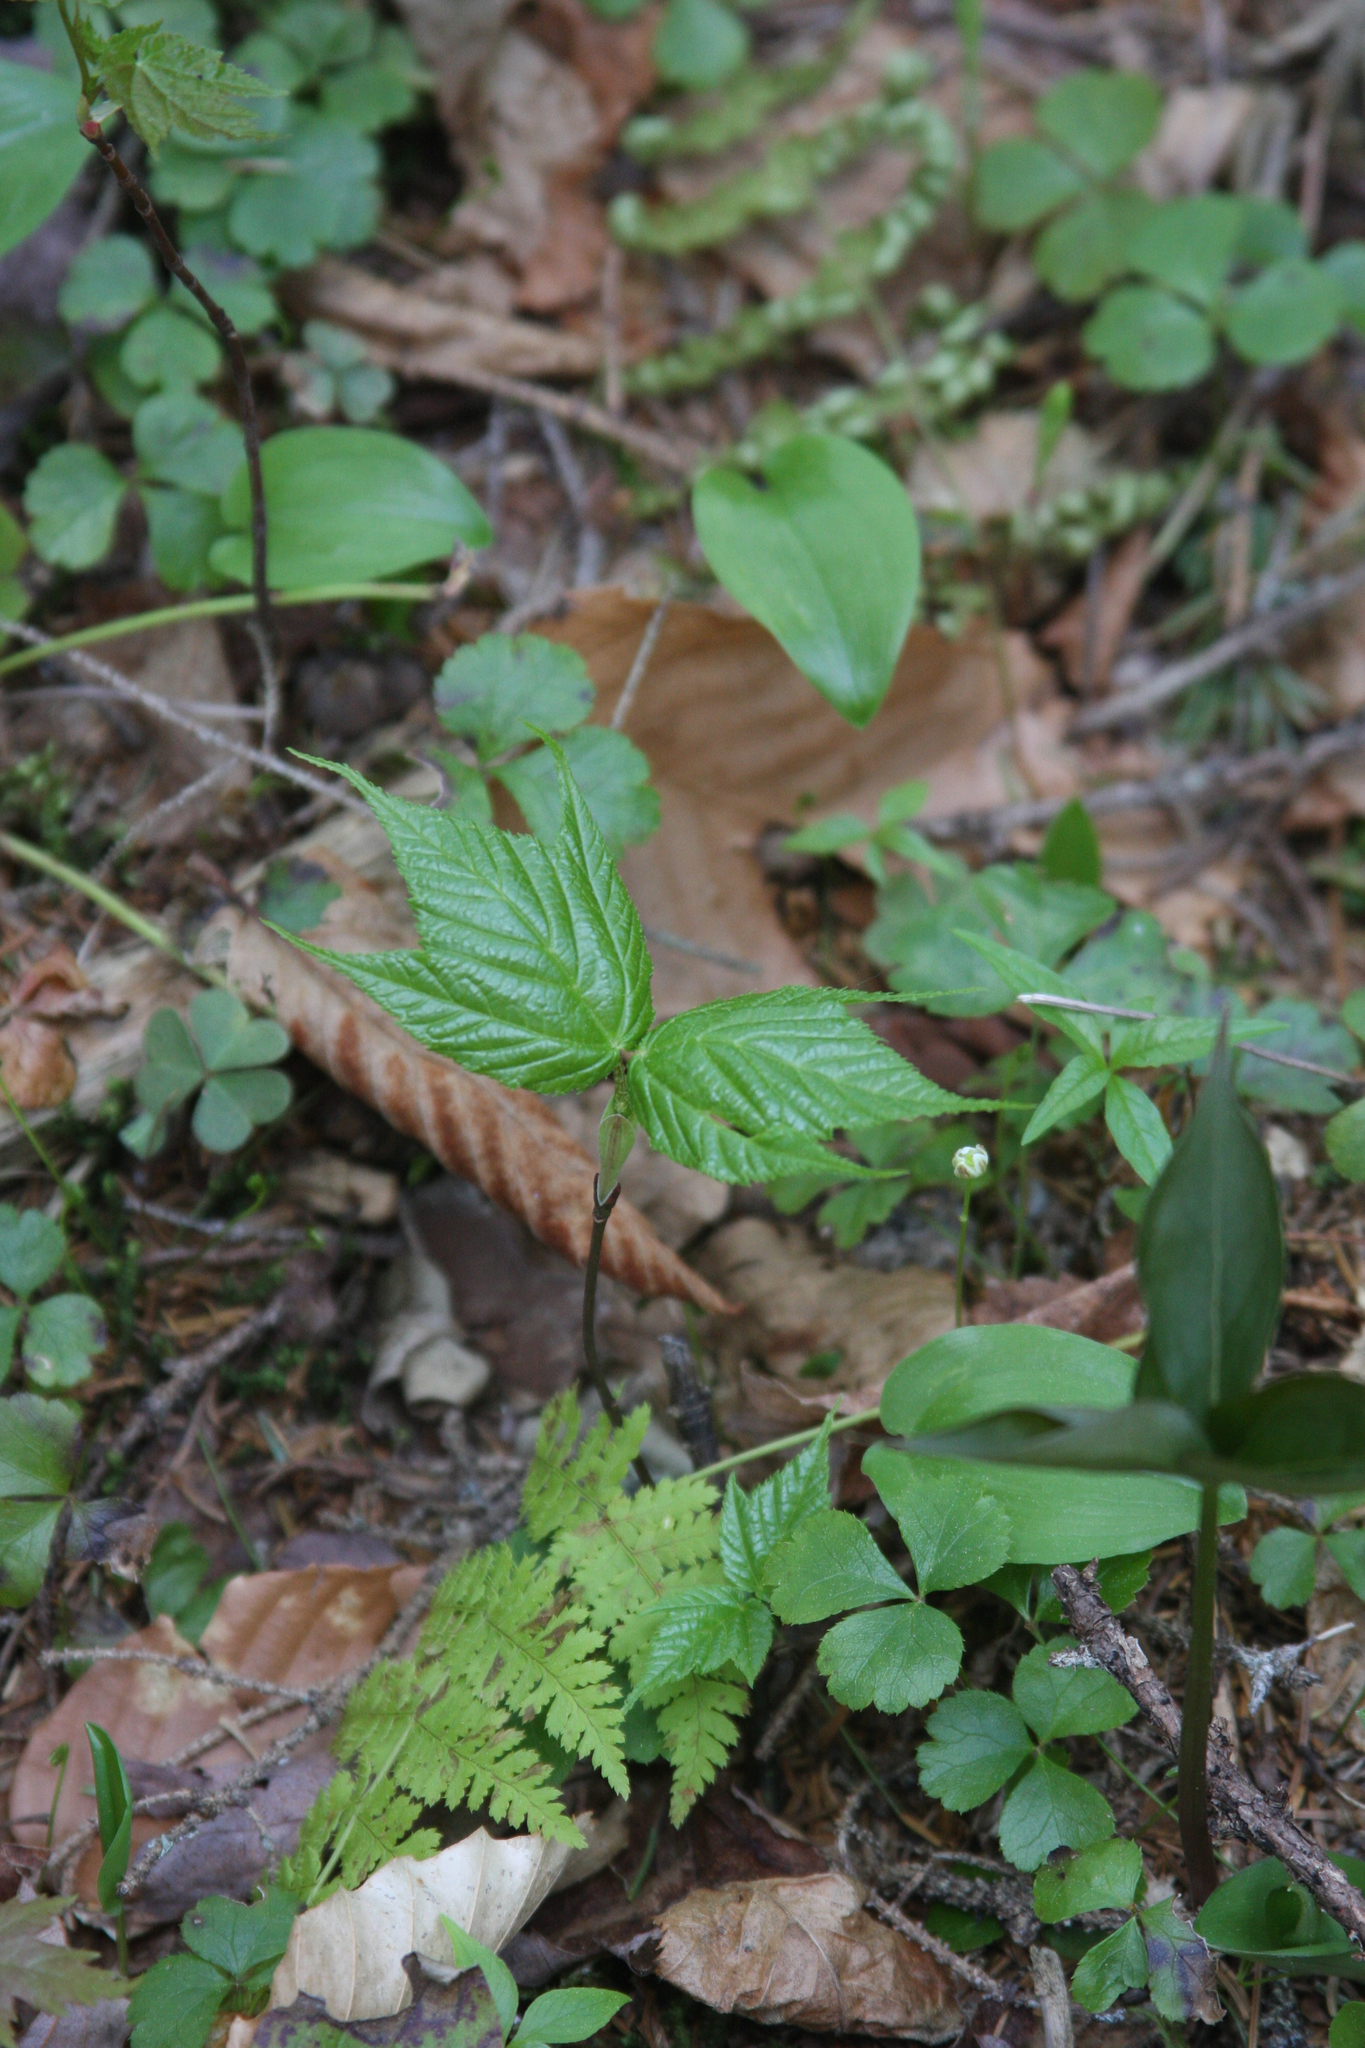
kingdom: Plantae
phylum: Tracheophyta
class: Magnoliopsida
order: Ranunculales
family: Ranunculaceae
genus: Coptis
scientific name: Coptis trifolia
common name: Canker-root
